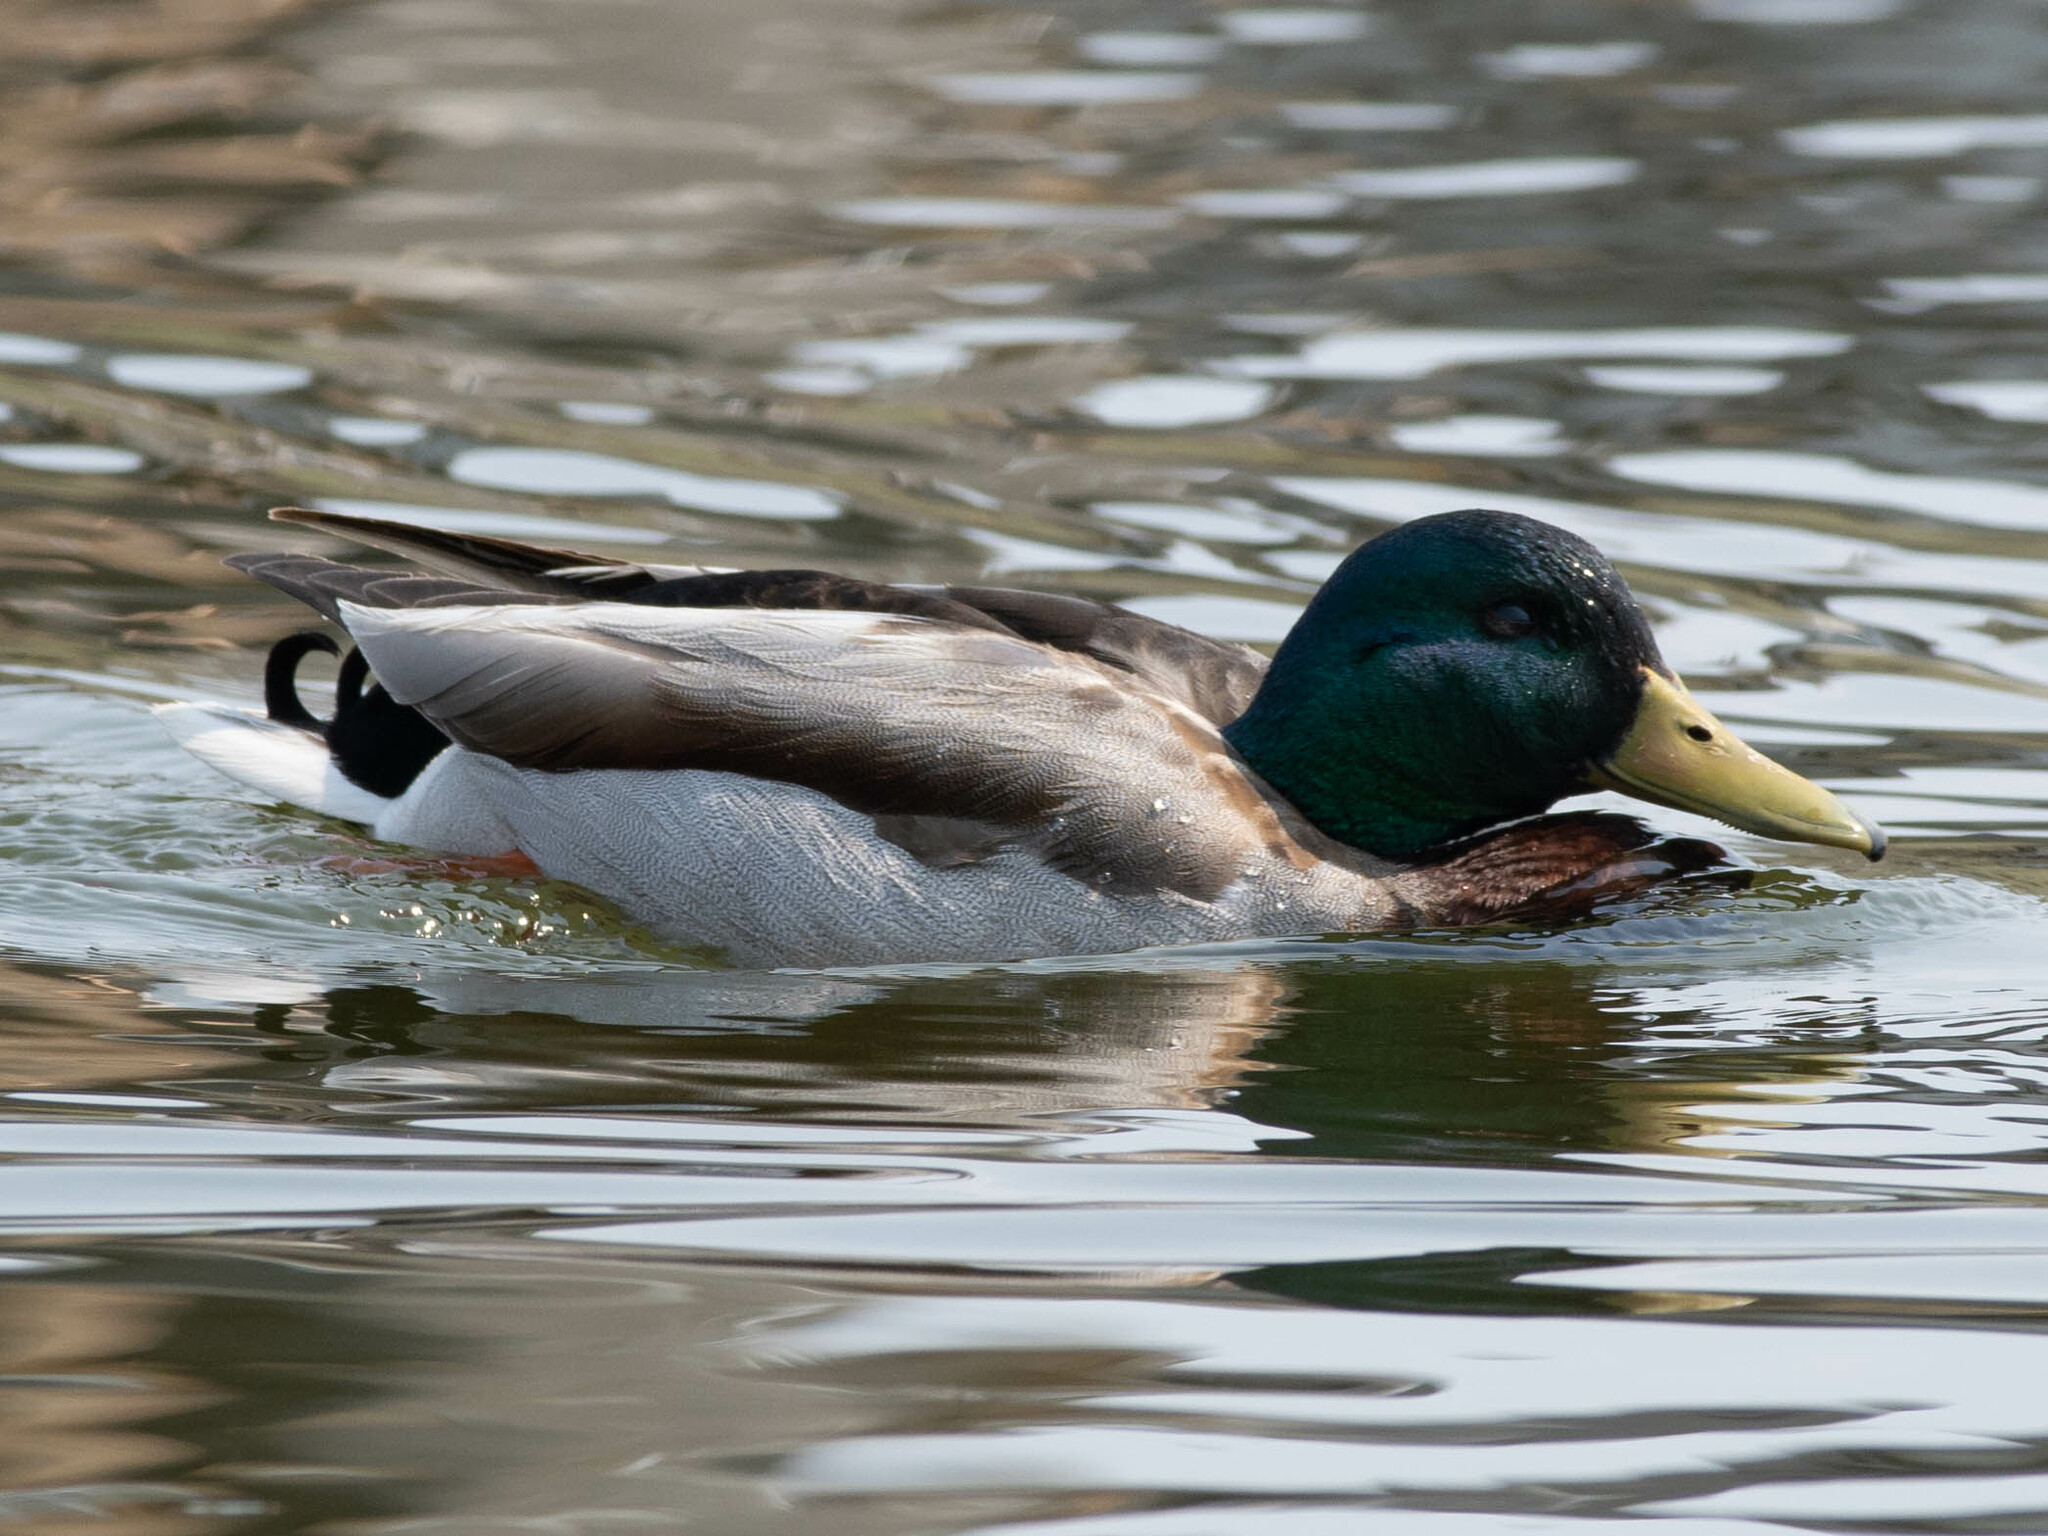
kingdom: Animalia
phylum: Chordata
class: Aves
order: Anseriformes
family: Anatidae
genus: Anas
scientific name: Anas platyrhynchos
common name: Mallard
